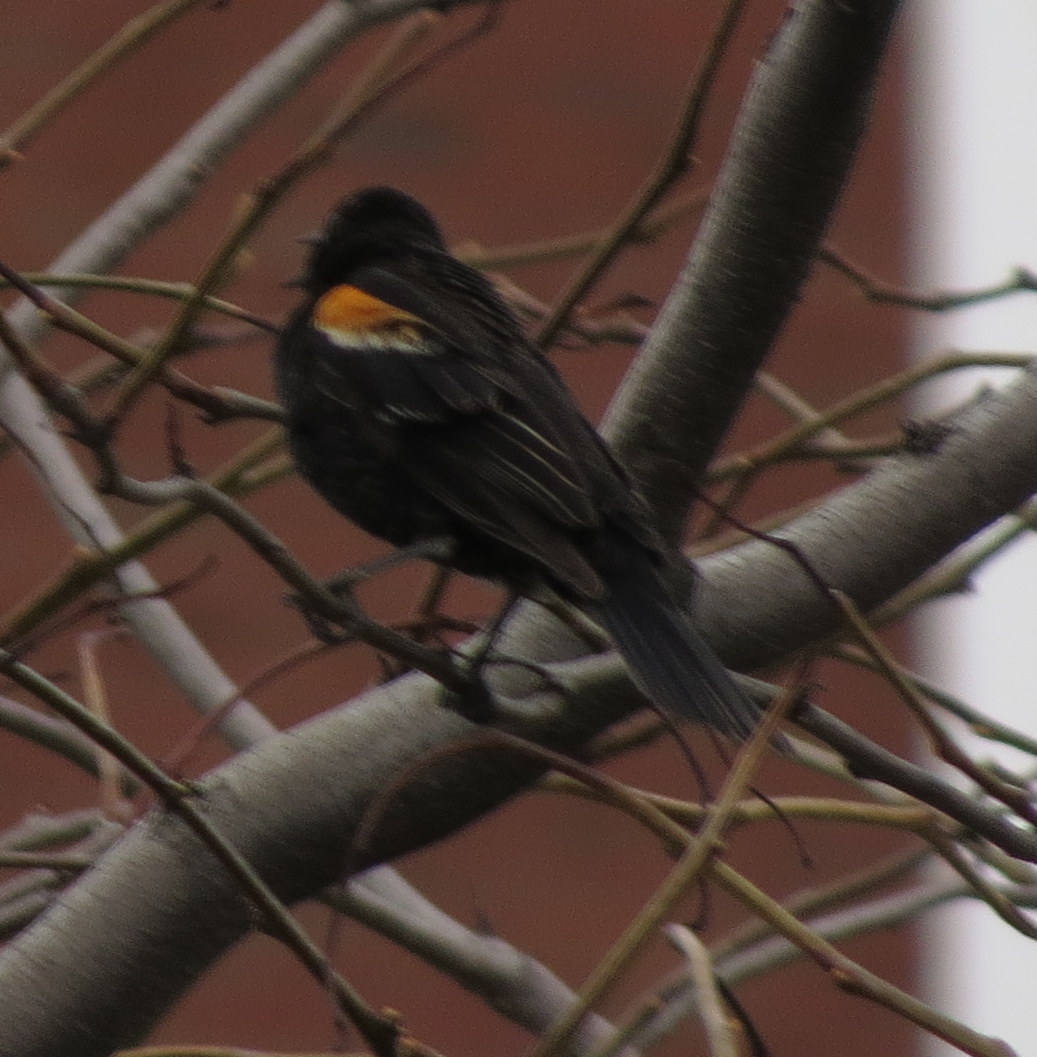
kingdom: Animalia
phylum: Chordata
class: Aves
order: Passeriformes
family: Icteridae
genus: Agelaius
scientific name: Agelaius phoeniceus
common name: Red-winged blackbird
